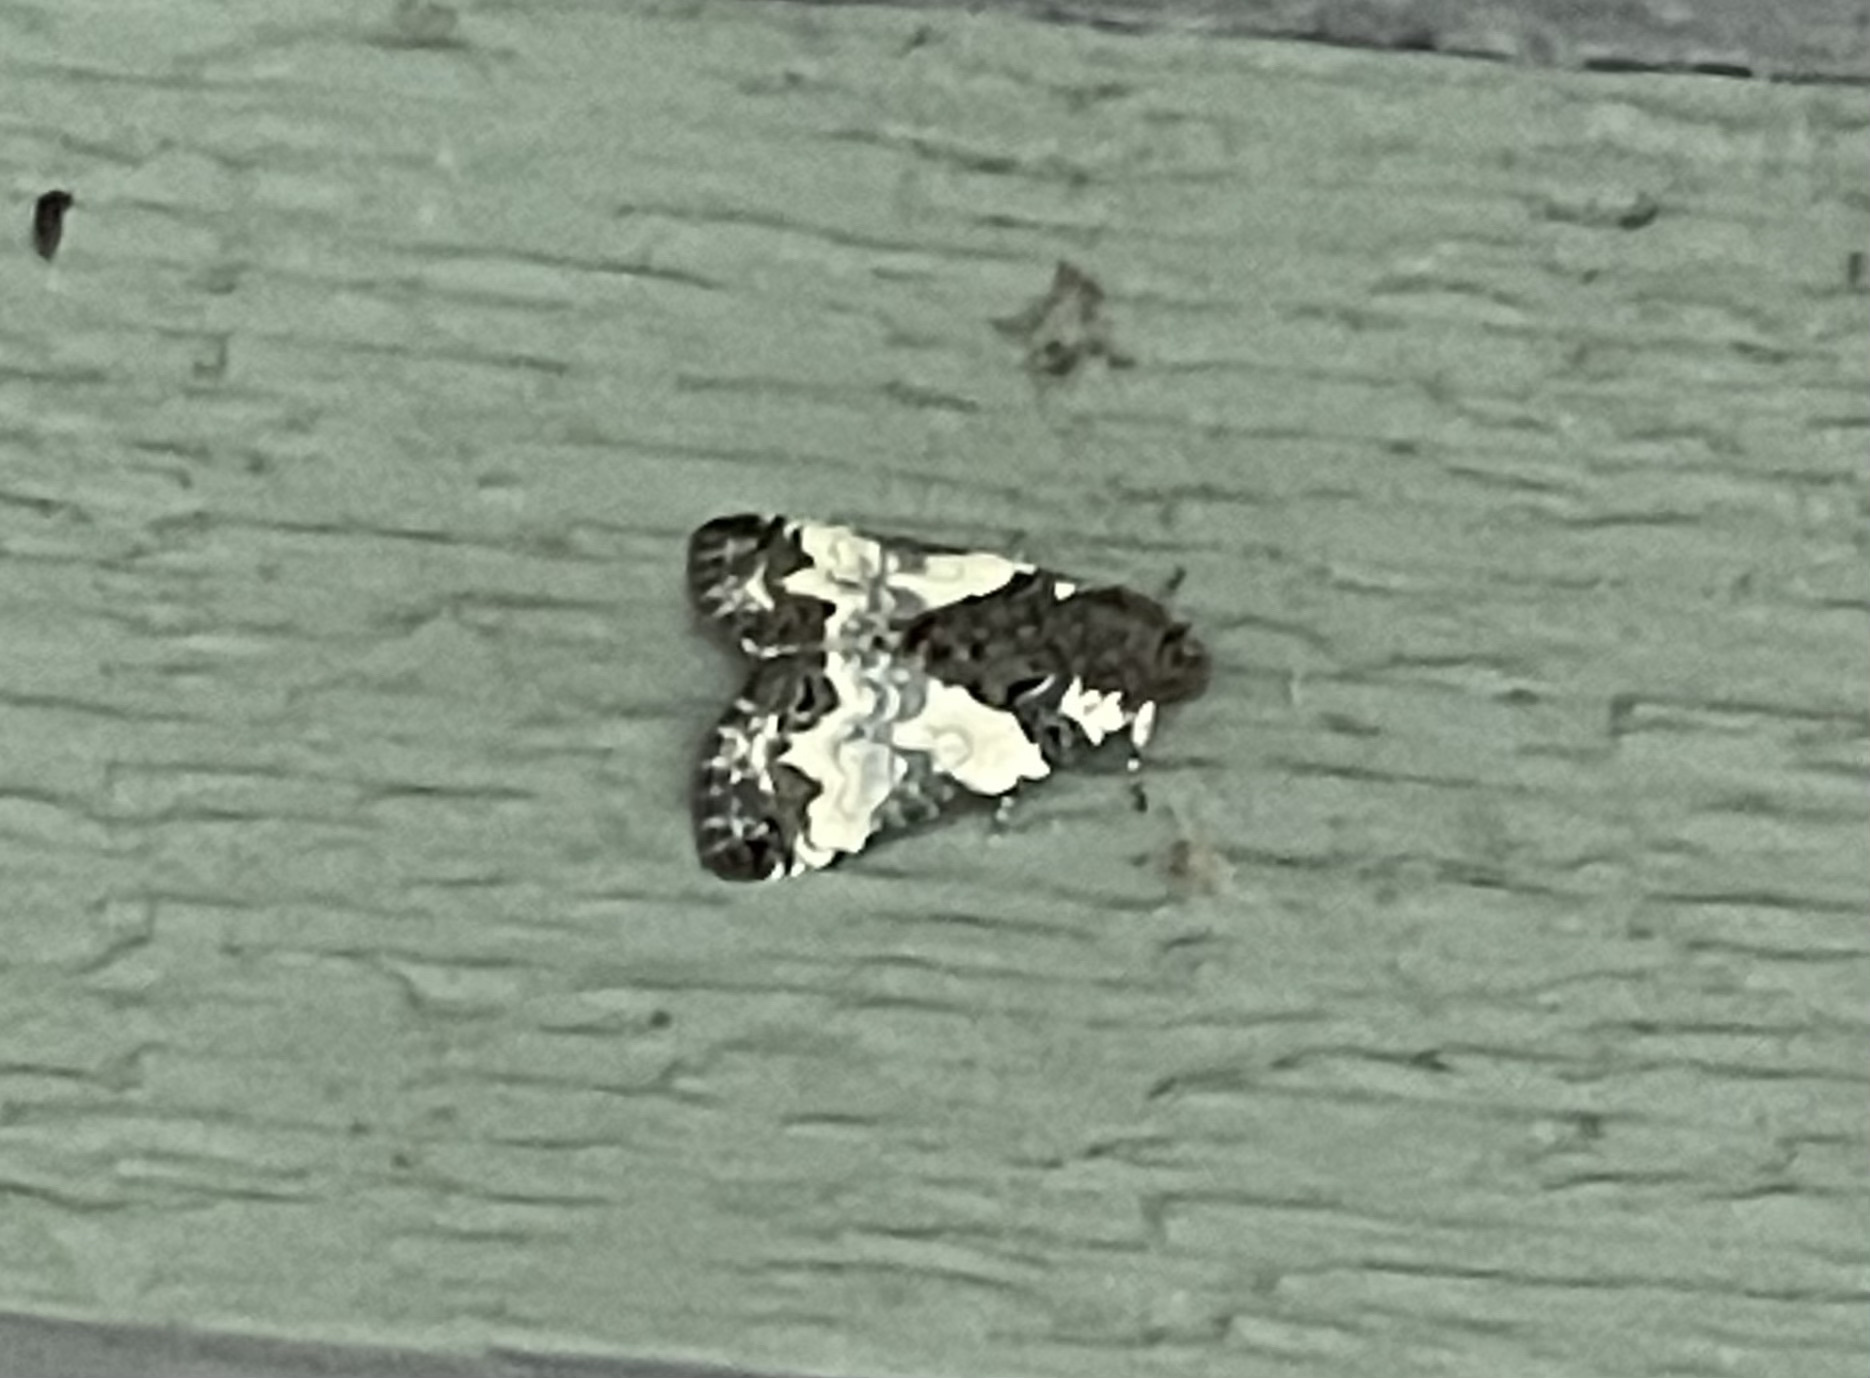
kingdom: Animalia
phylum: Arthropoda
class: Insecta
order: Lepidoptera
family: Noctuidae
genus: Cerma
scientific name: Cerma cerintha
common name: Tufted bird-dropping moth
